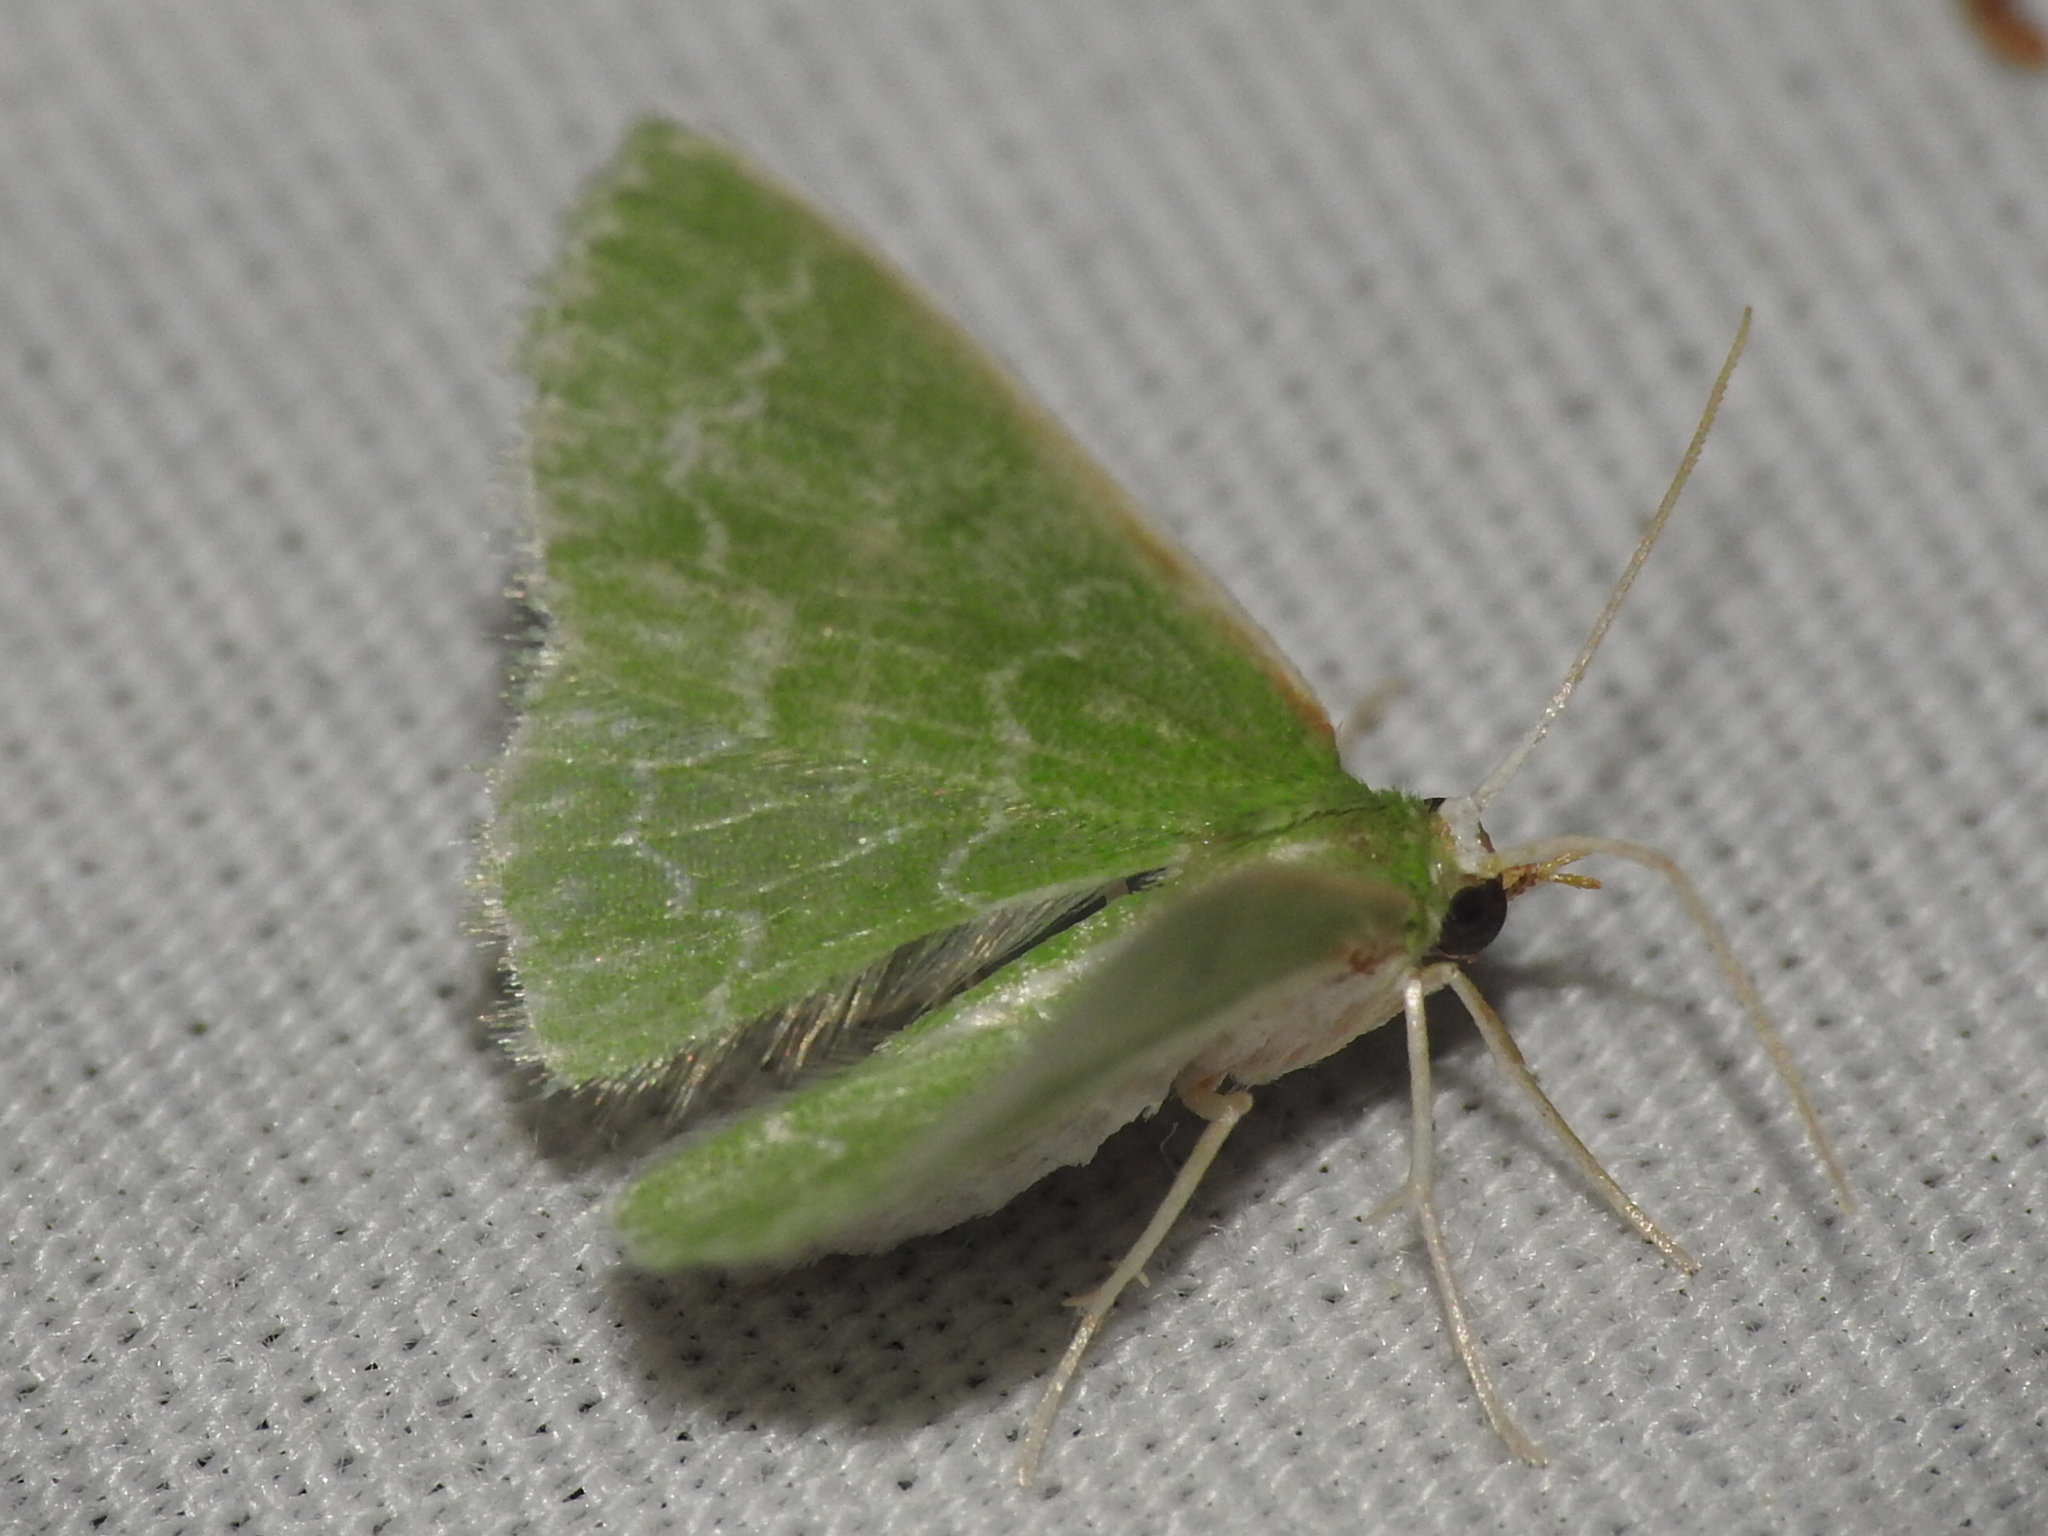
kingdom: Animalia
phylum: Arthropoda
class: Insecta
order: Lepidoptera
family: Geometridae
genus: Synchlora
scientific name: Synchlora frondaria
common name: Southern emerald
